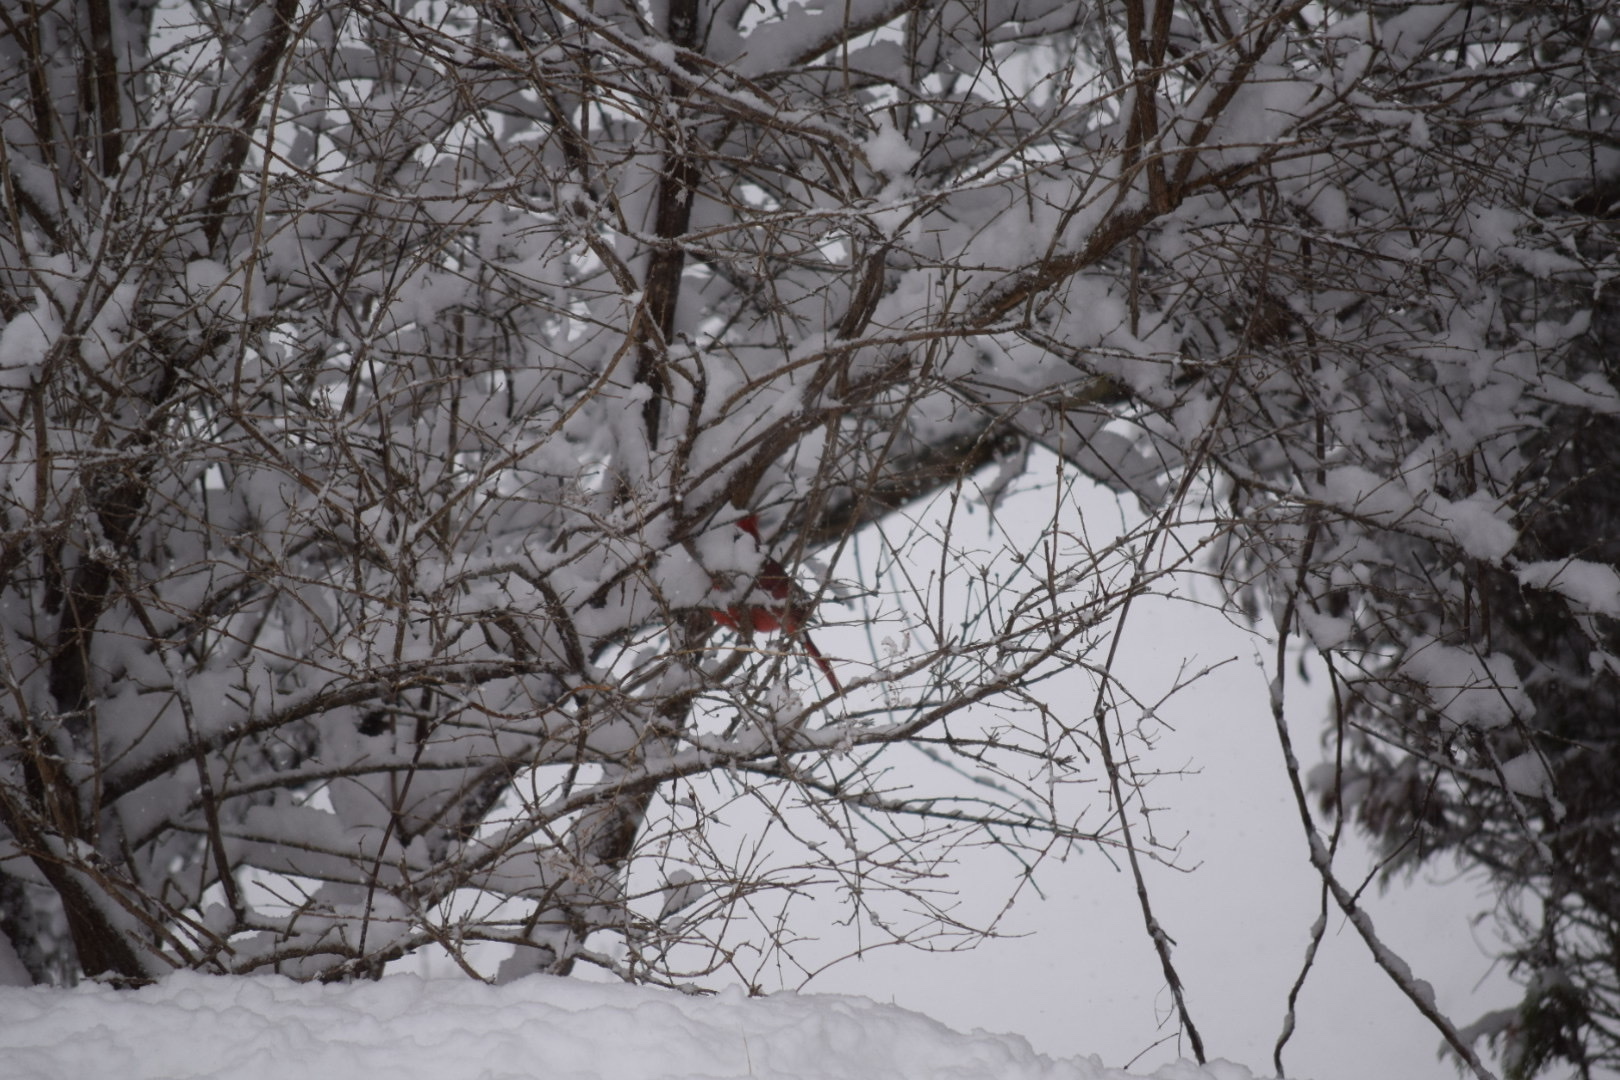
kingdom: Animalia
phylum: Chordata
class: Aves
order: Passeriformes
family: Cardinalidae
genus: Cardinalis
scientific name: Cardinalis cardinalis
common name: Northern cardinal
